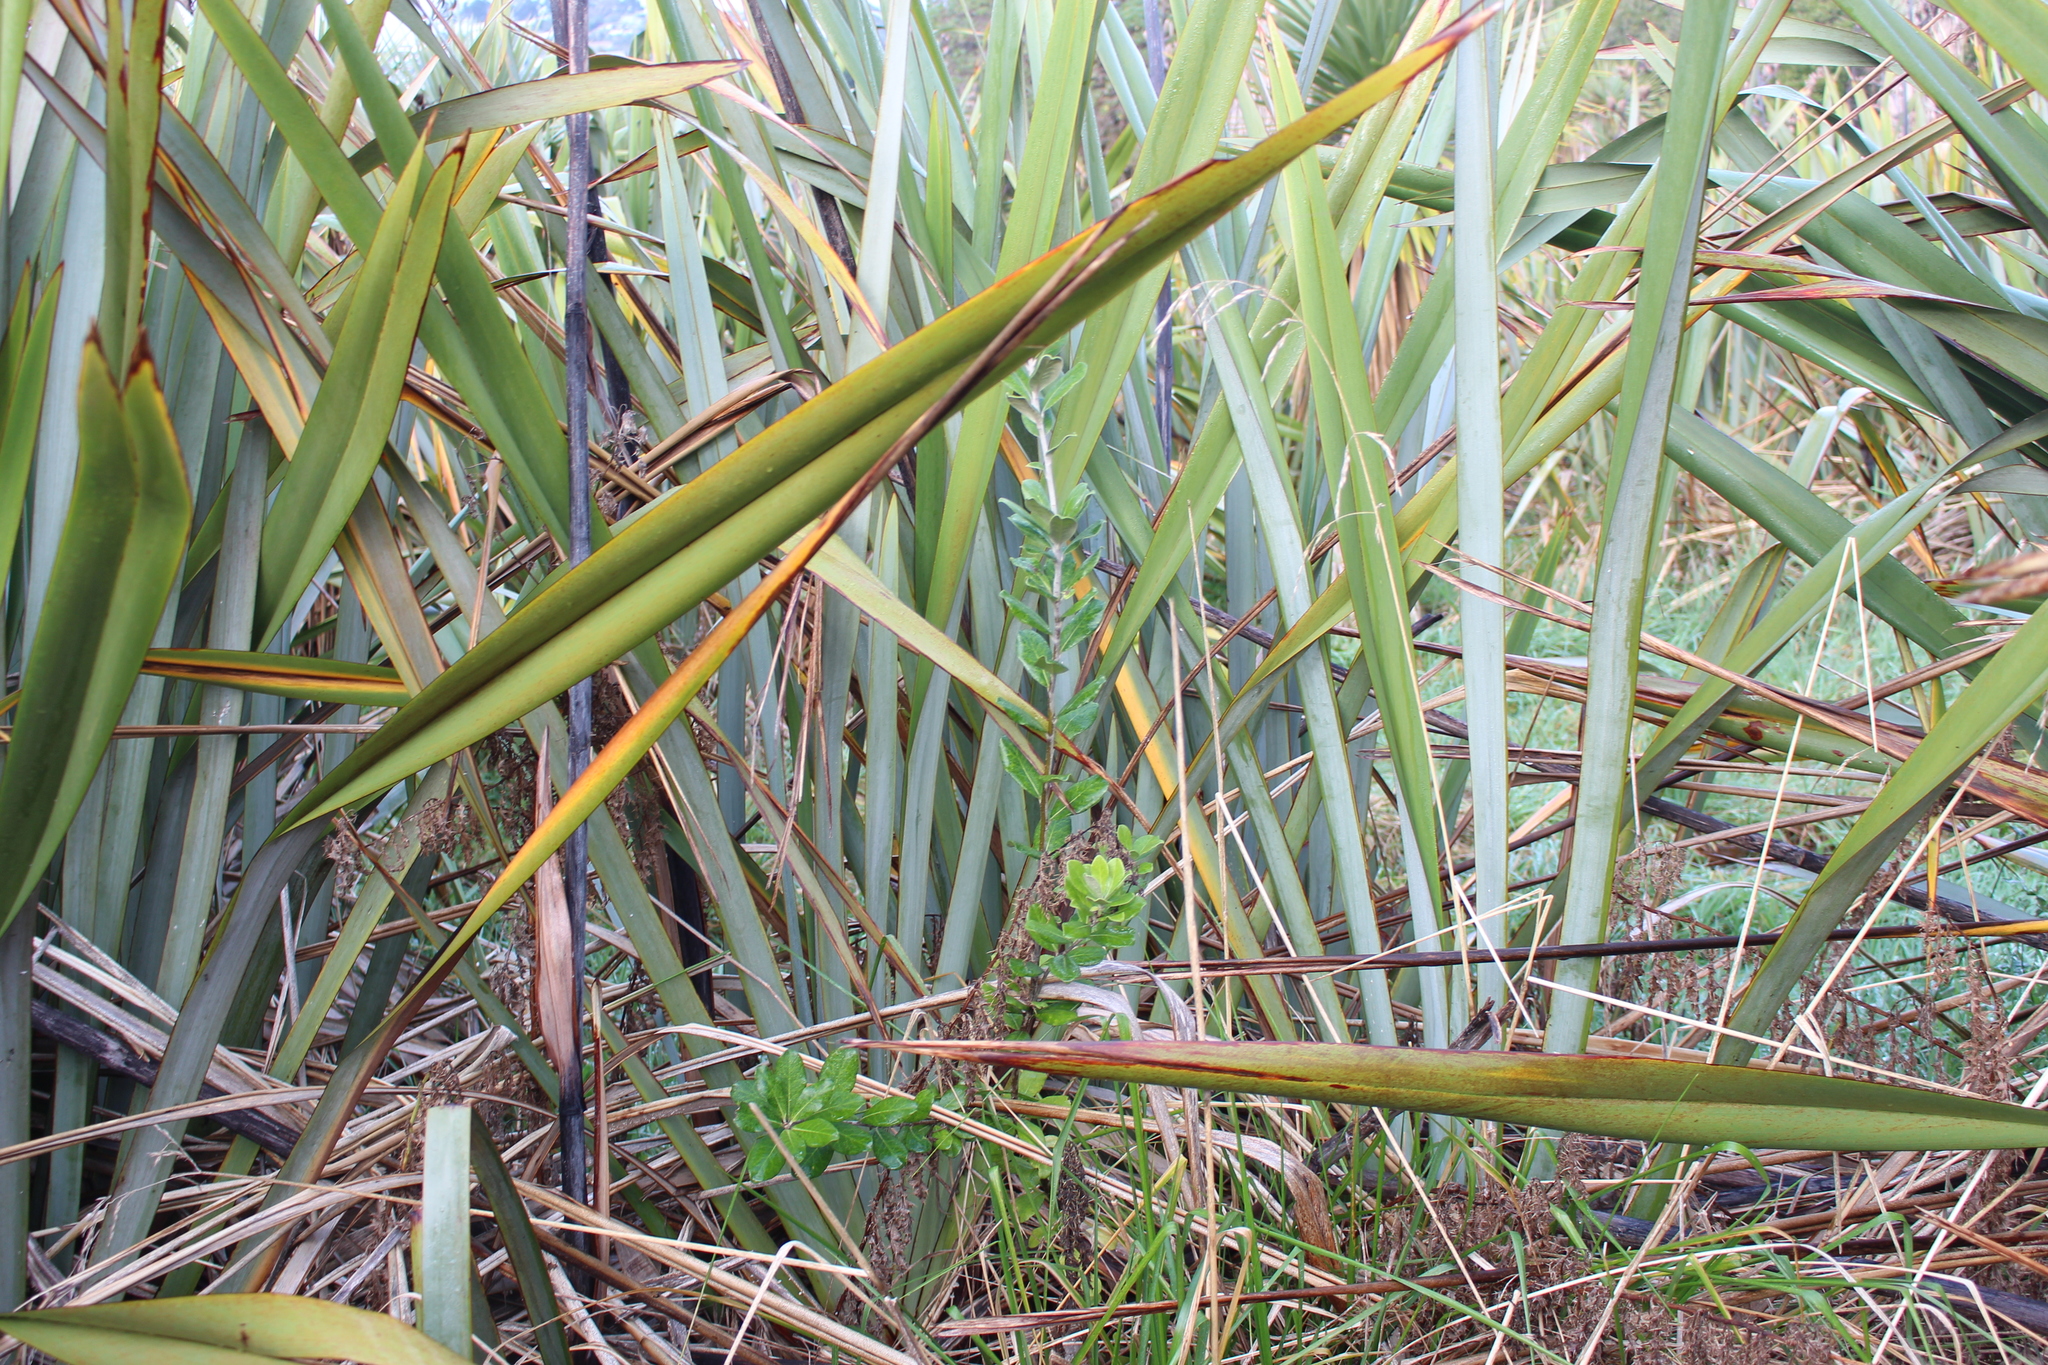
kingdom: Plantae
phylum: Tracheophyta
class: Magnoliopsida
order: Apiales
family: Pittosporaceae
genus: Pittosporum
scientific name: Pittosporum crassifolium
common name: Karo
